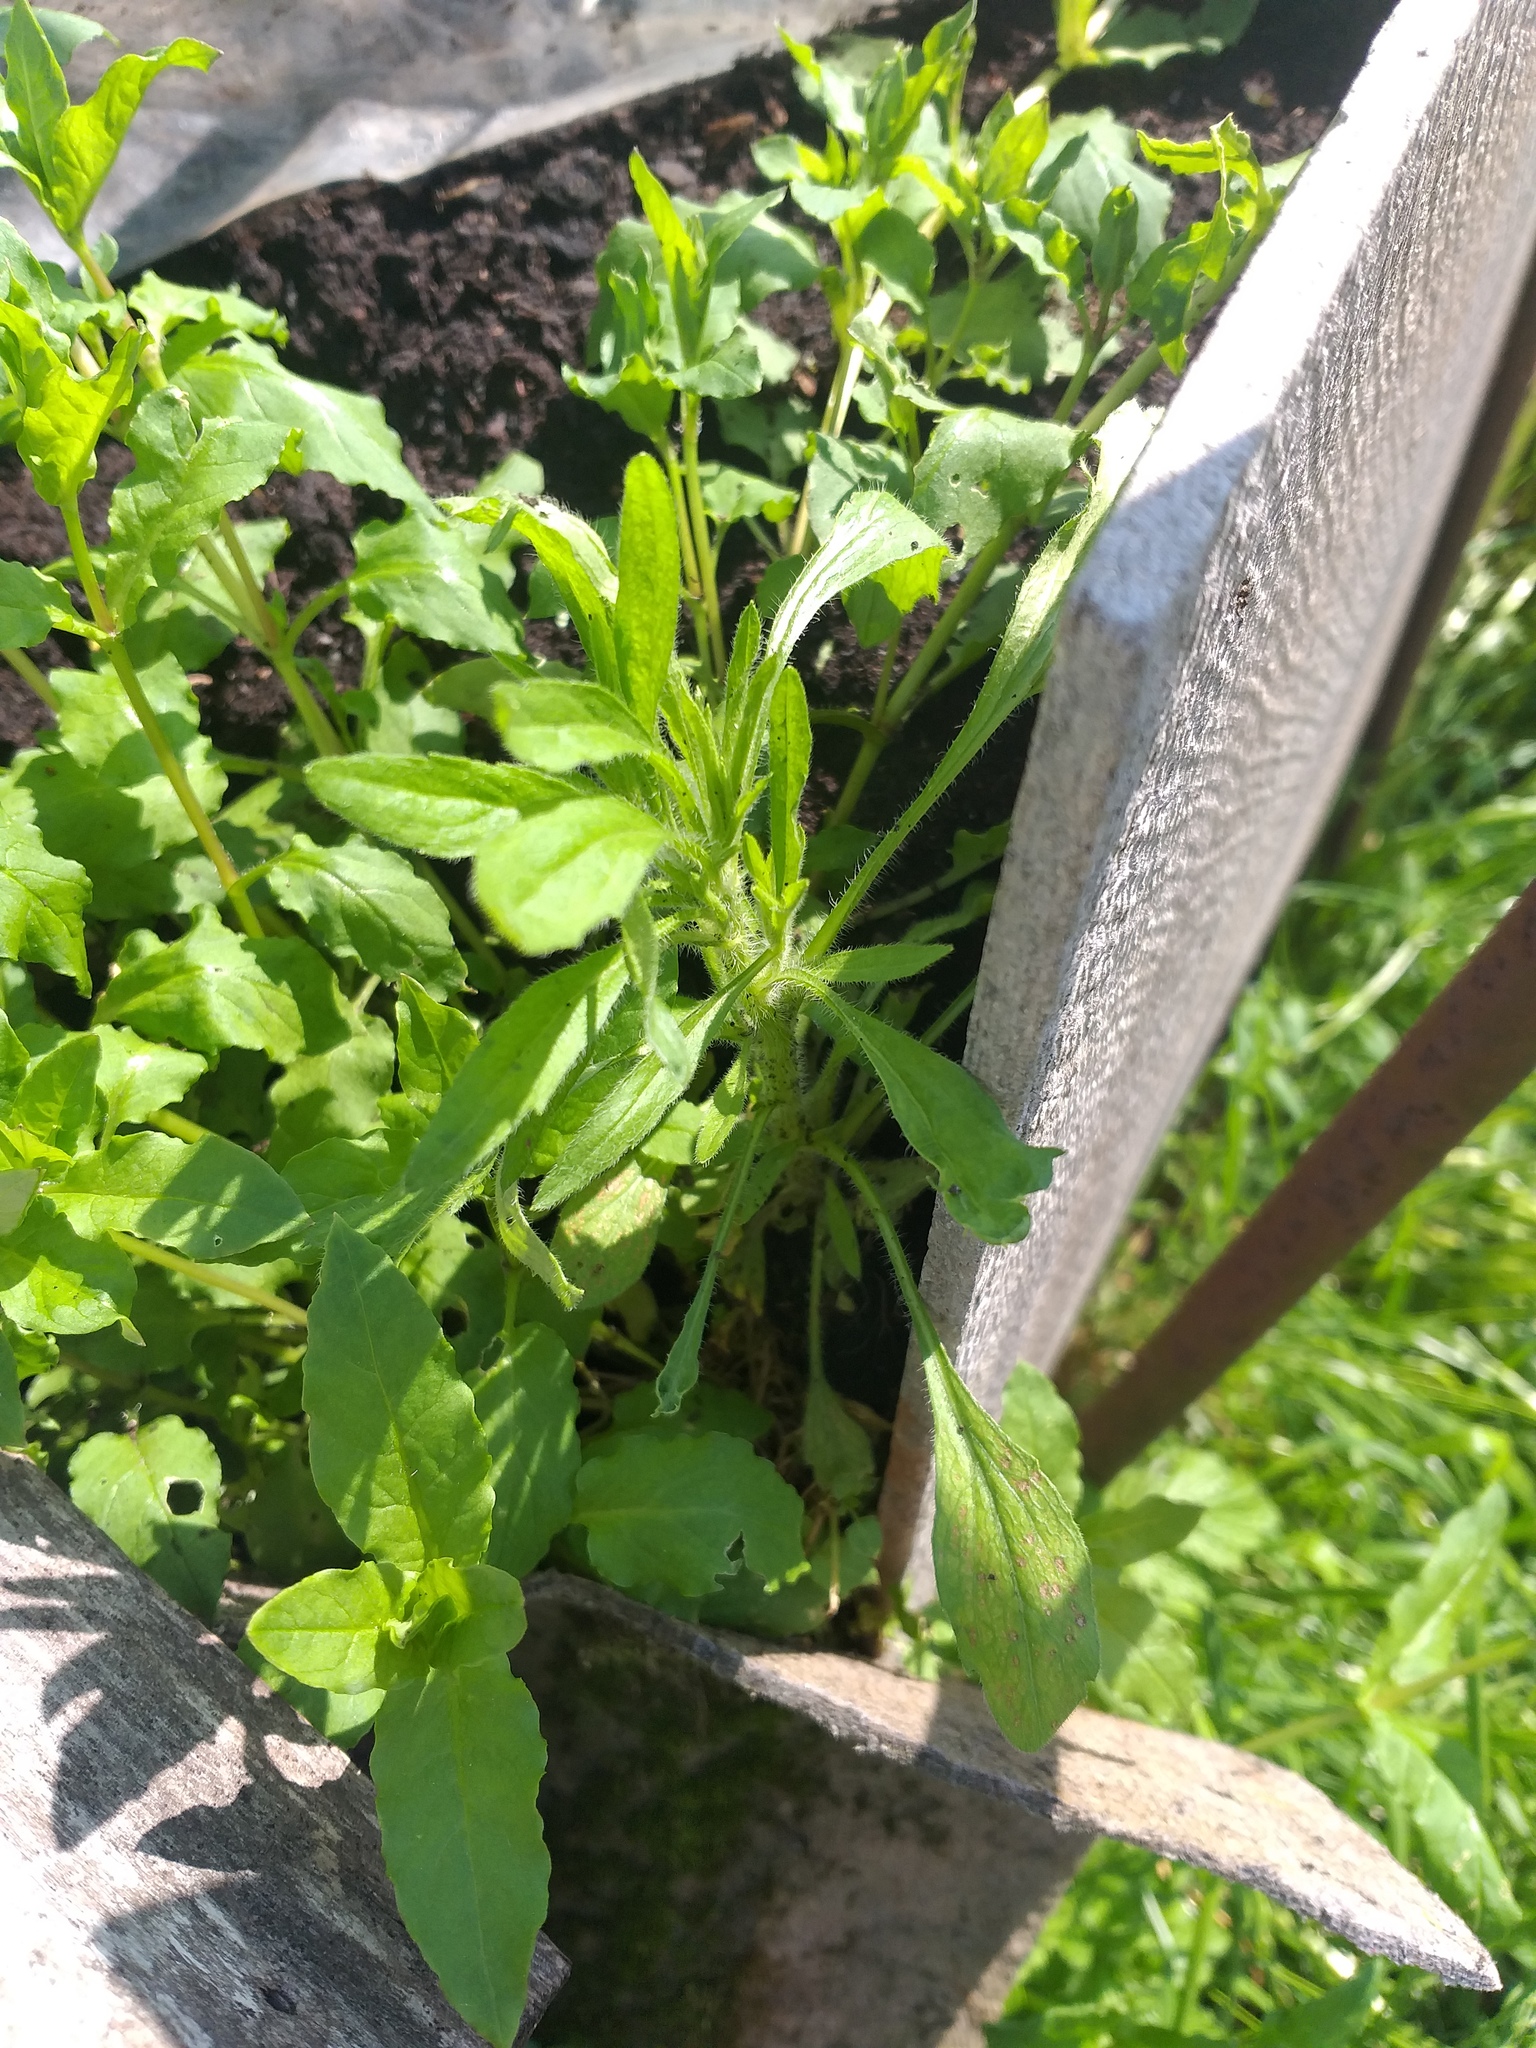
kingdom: Plantae
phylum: Tracheophyta
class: Magnoliopsida
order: Asterales
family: Asteraceae
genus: Erigeron
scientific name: Erigeron canadensis
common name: Canadian fleabane
